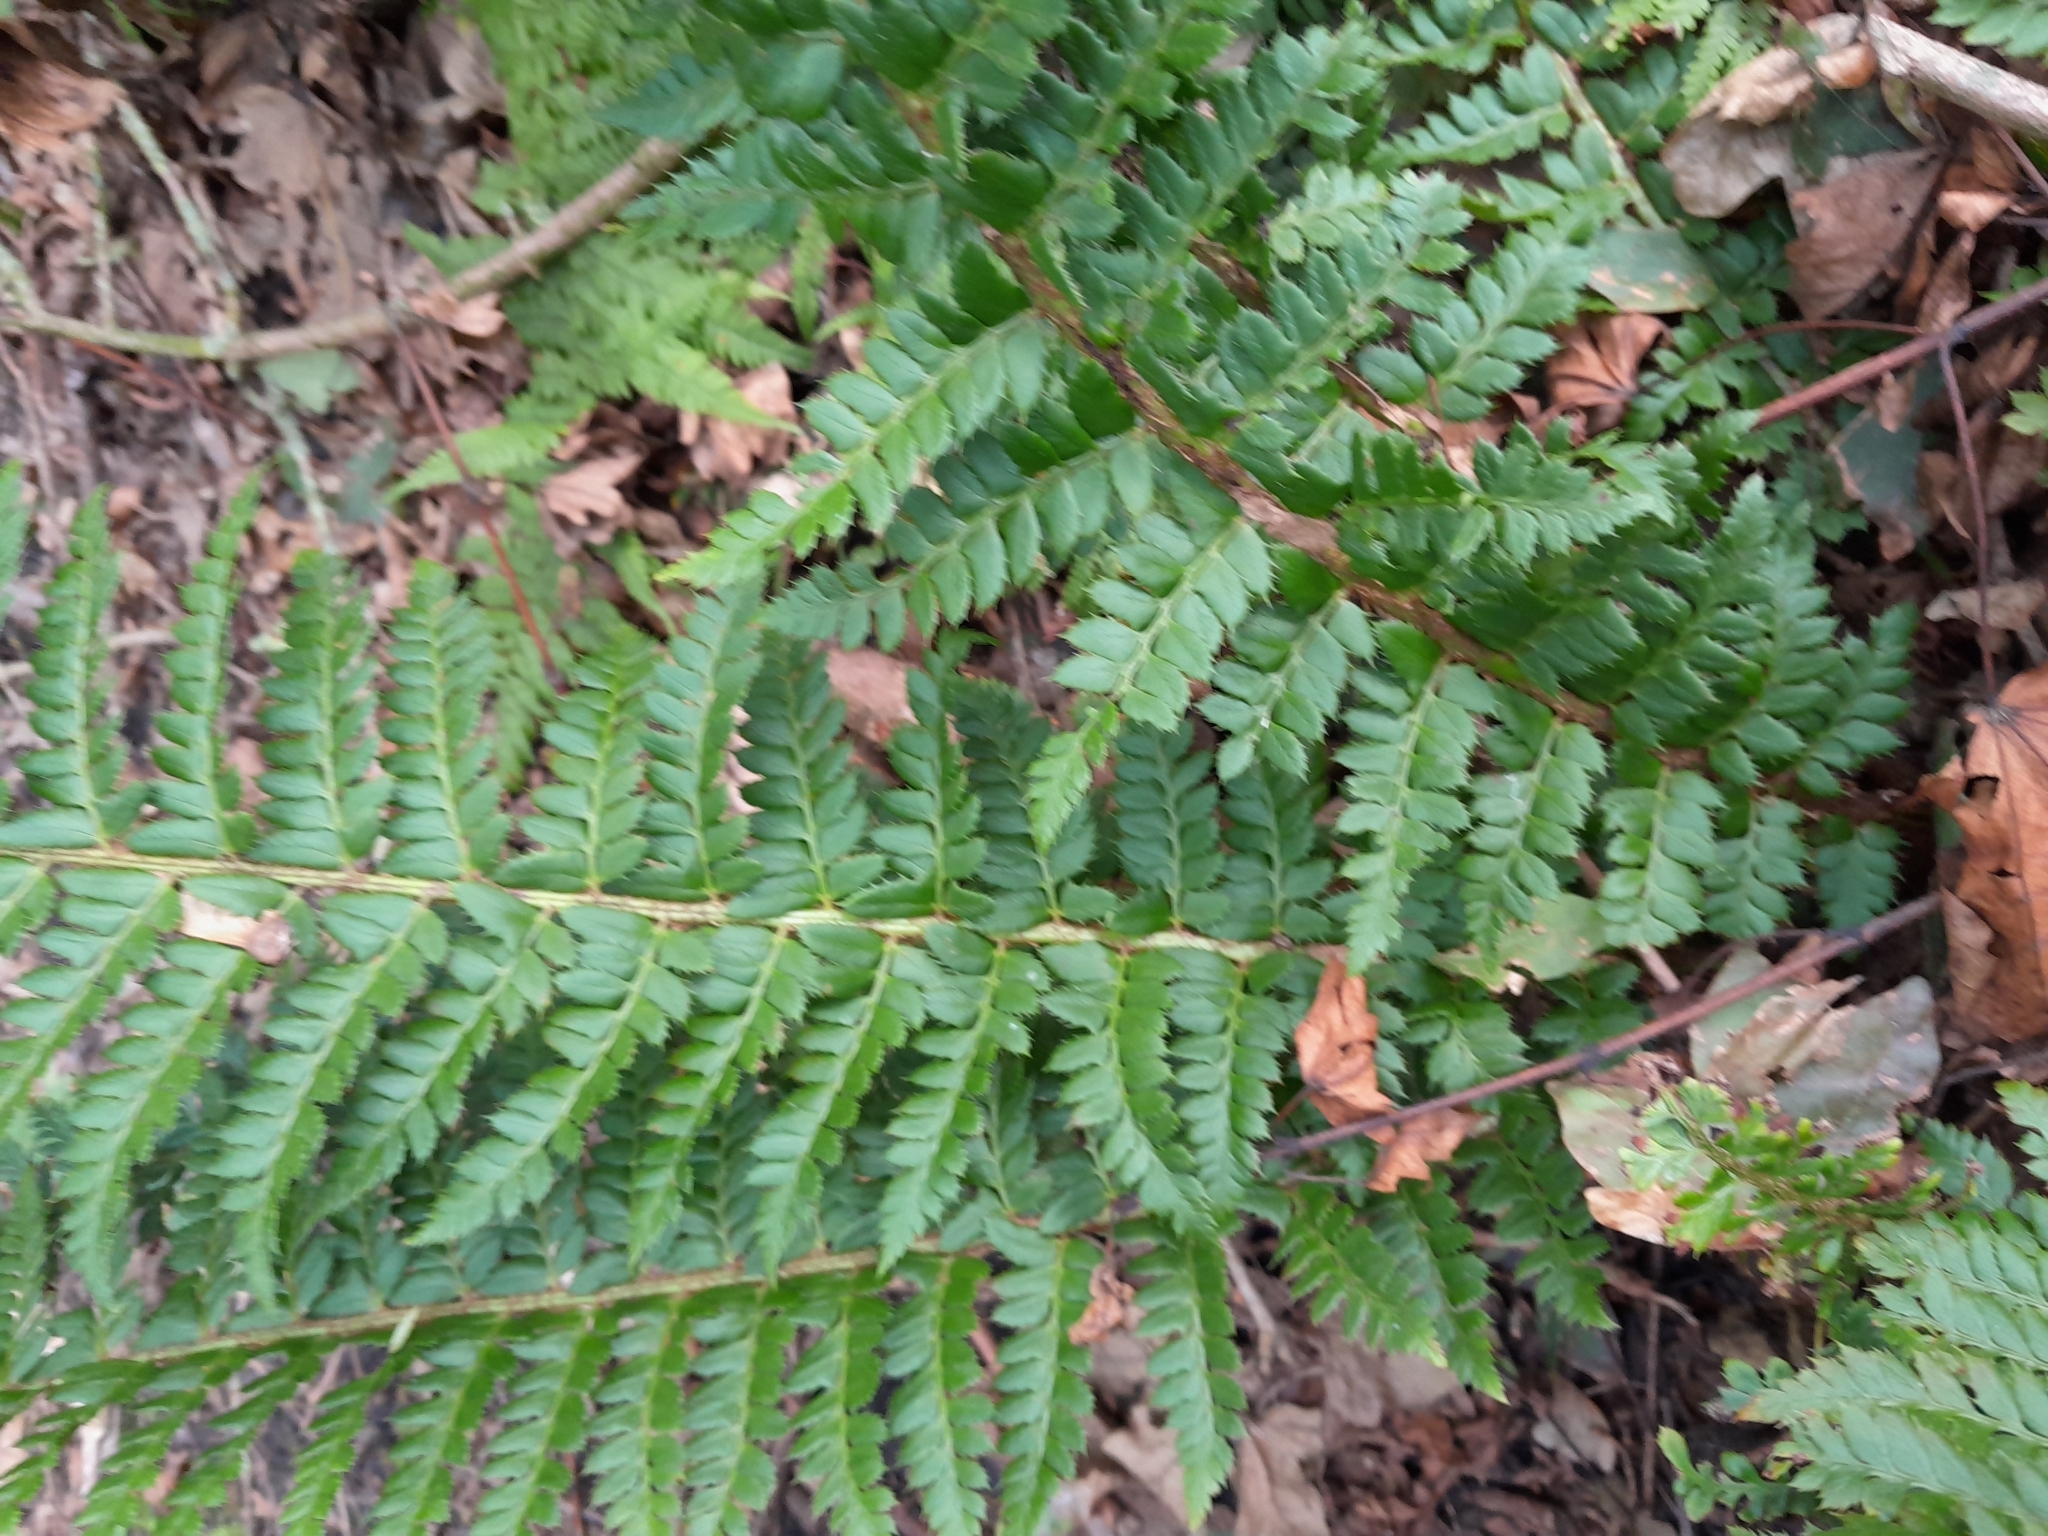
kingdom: Plantae
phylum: Tracheophyta
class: Polypodiopsida
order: Polypodiales
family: Dryopteridaceae
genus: Polystichum
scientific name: Polystichum aculeatum
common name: Hard shield-fern
